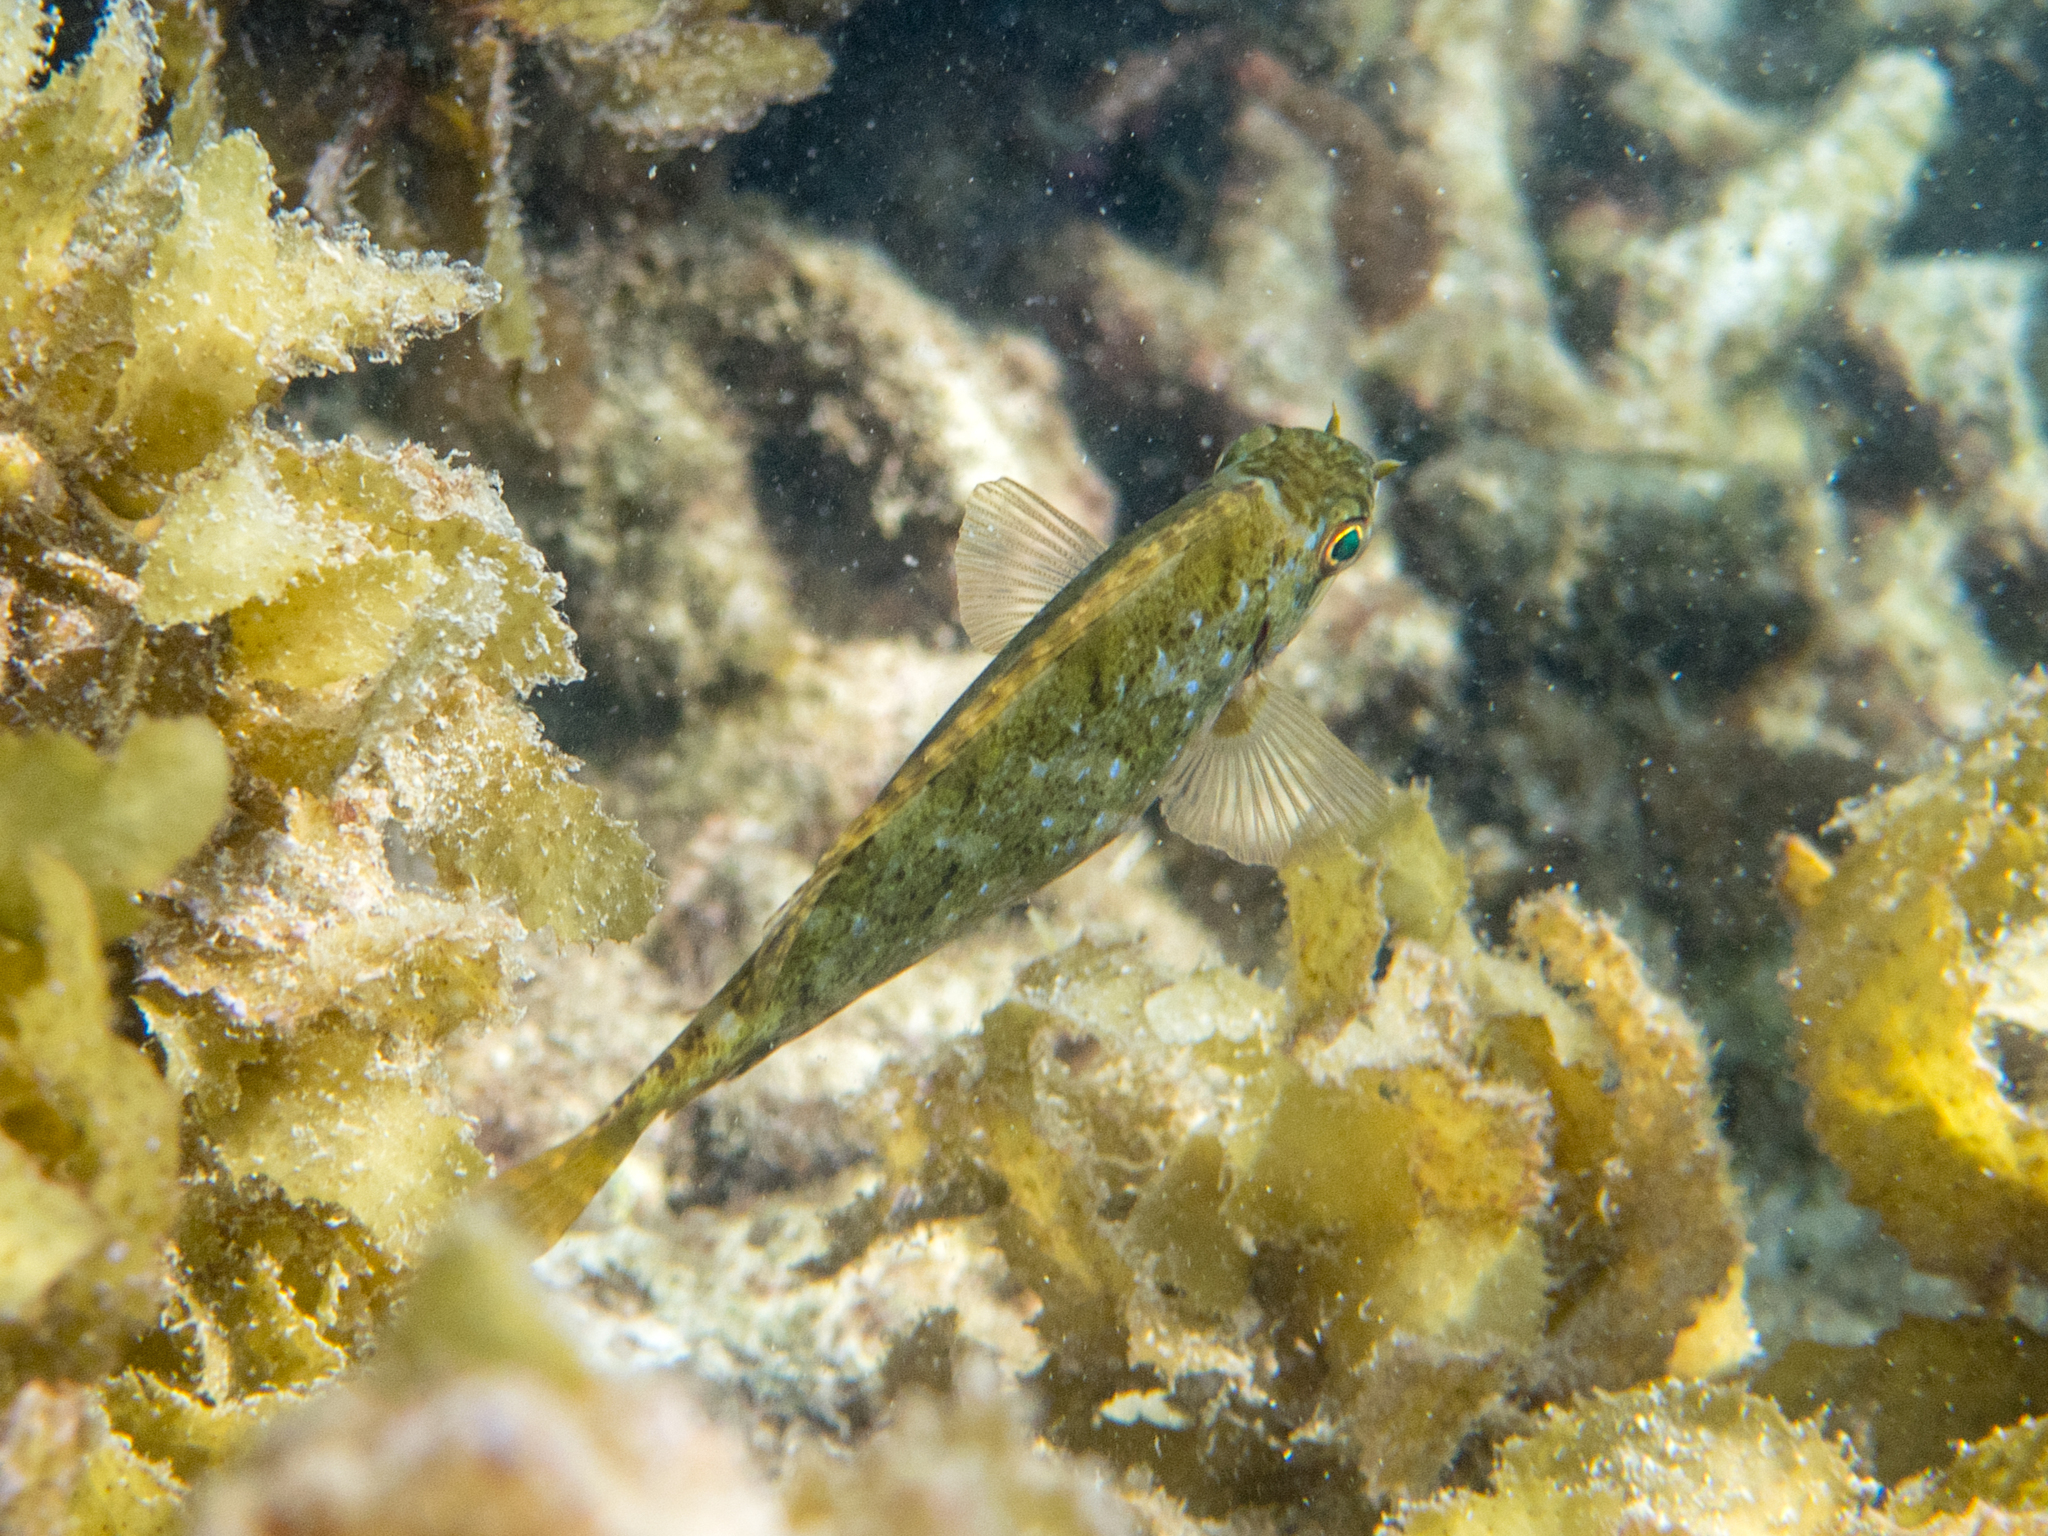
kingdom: Animalia
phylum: Chordata
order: Perciformes
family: Siganidae
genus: Siganus
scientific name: Siganus sutor
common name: Shoemaker spinefoot
